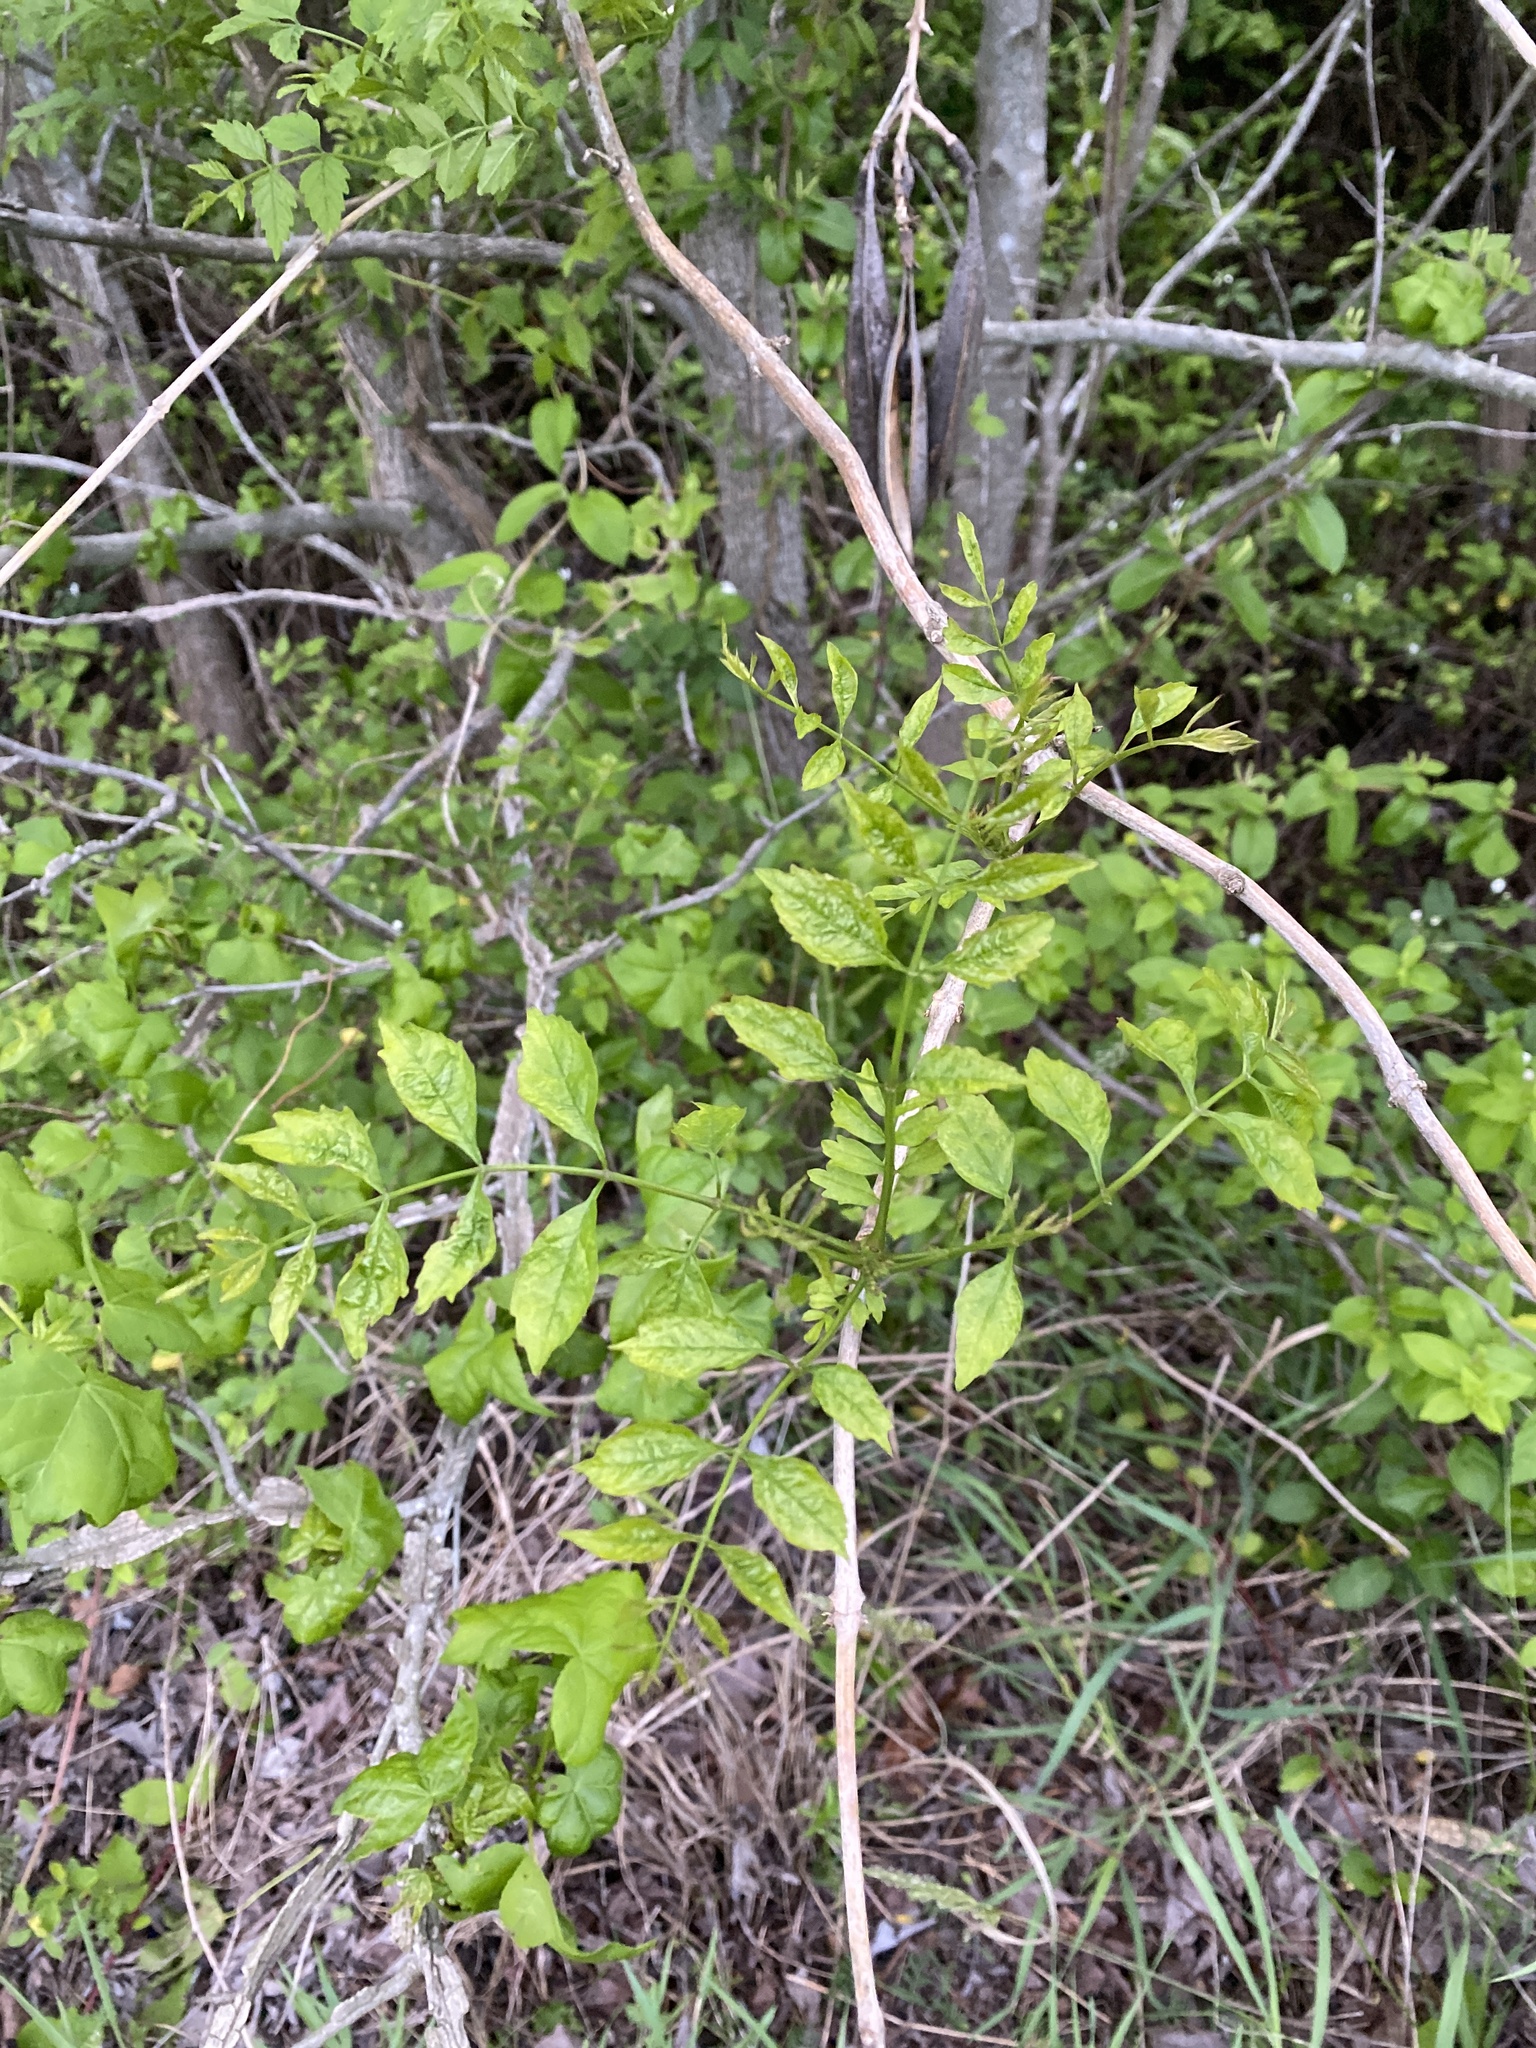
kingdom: Plantae
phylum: Tracheophyta
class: Magnoliopsida
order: Lamiales
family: Bignoniaceae
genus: Campsis
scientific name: Campsis radicans
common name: Trumpet-creeper
